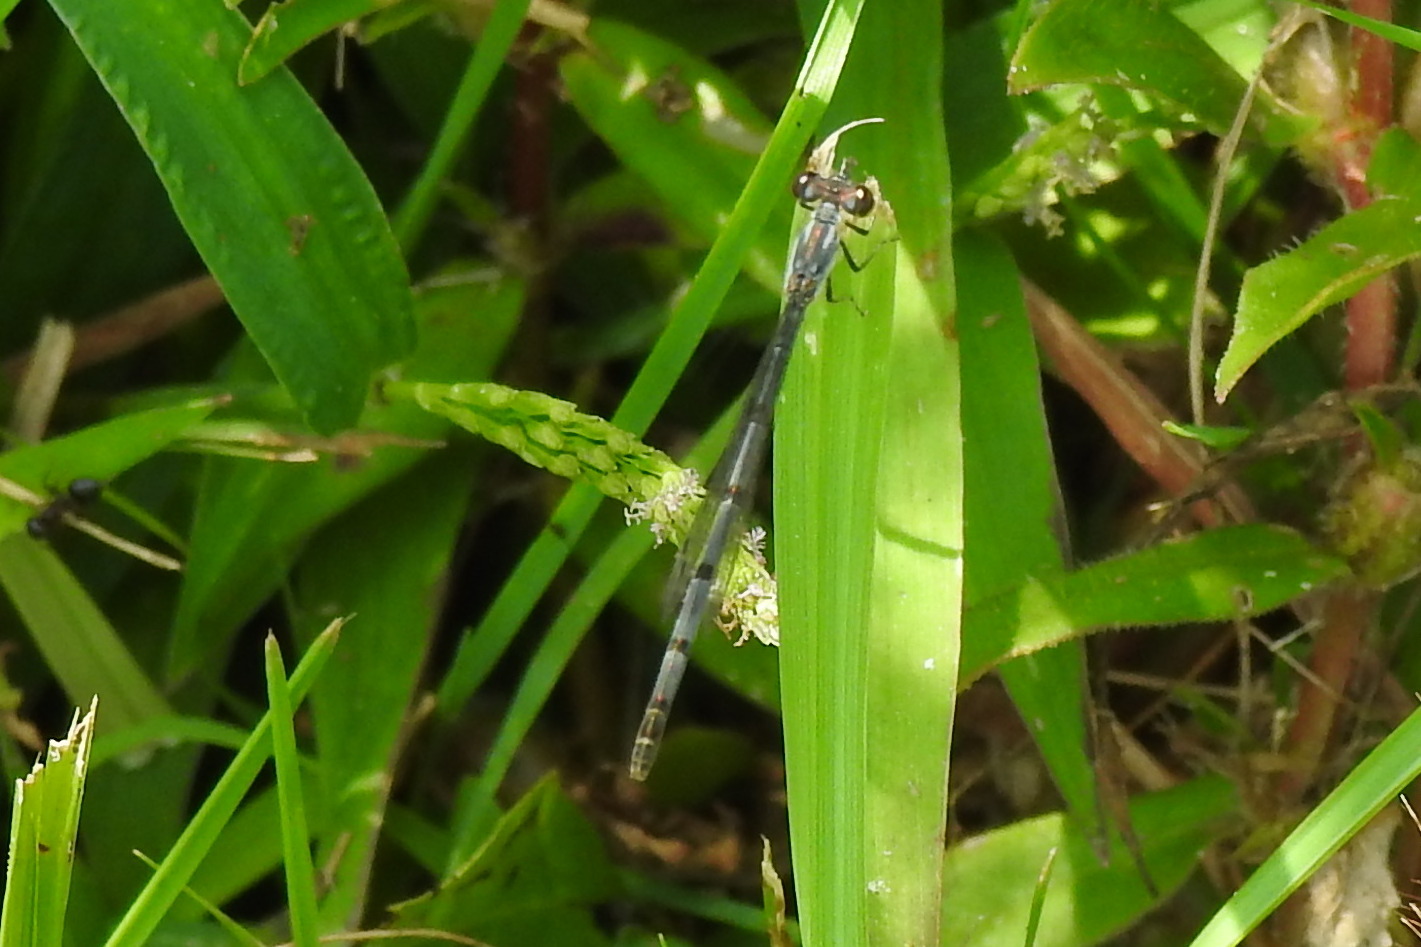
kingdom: Animalia
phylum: Arthropoda
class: Insecta
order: Odonata
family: Coenagrionidae
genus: Ischnura
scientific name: Ischnura posita
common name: Fragile forktail
